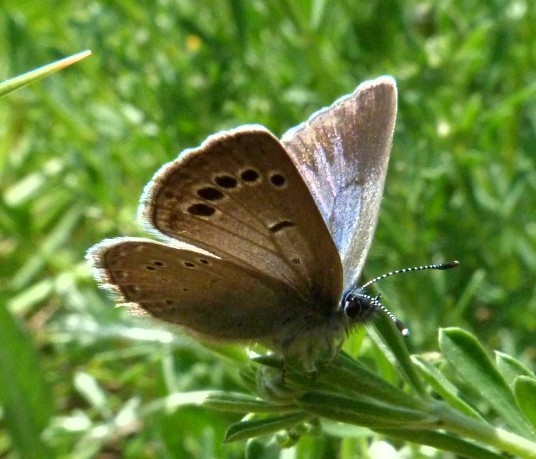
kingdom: Animalia
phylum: Arthropoda
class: Insecta
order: Lepidoptera
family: Lycaenidae
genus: Glaucopsyche
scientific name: Glaucopsyche melanops
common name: Black-eyed blue
